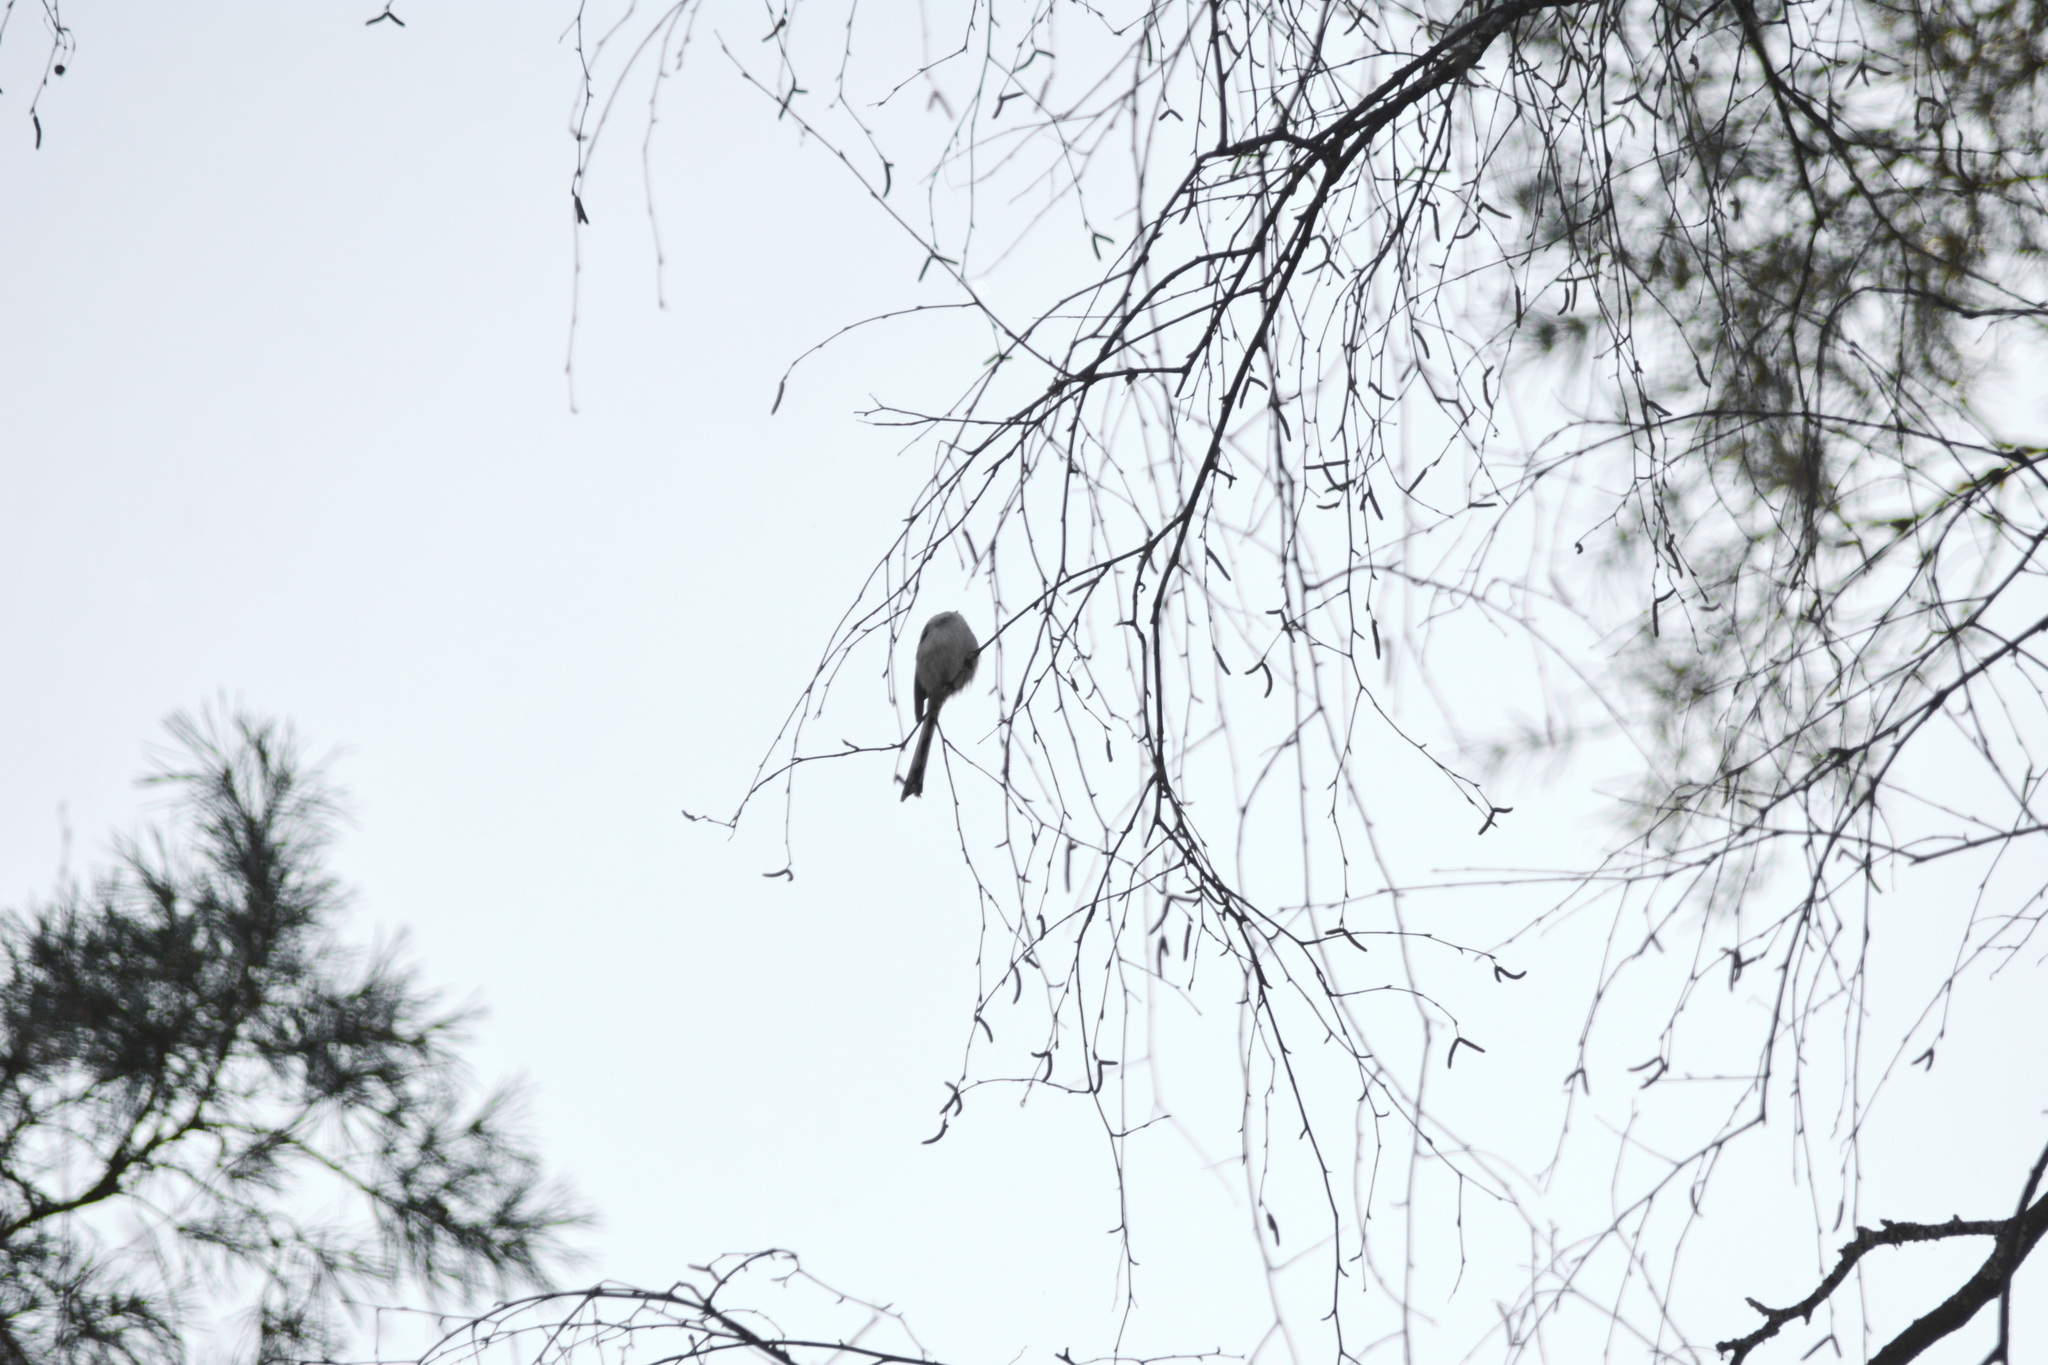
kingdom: Animalia
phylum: Chordata
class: Aves
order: Passeriformes
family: Aegithalidae
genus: Aegithalos
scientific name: Aegithalos caudatus
